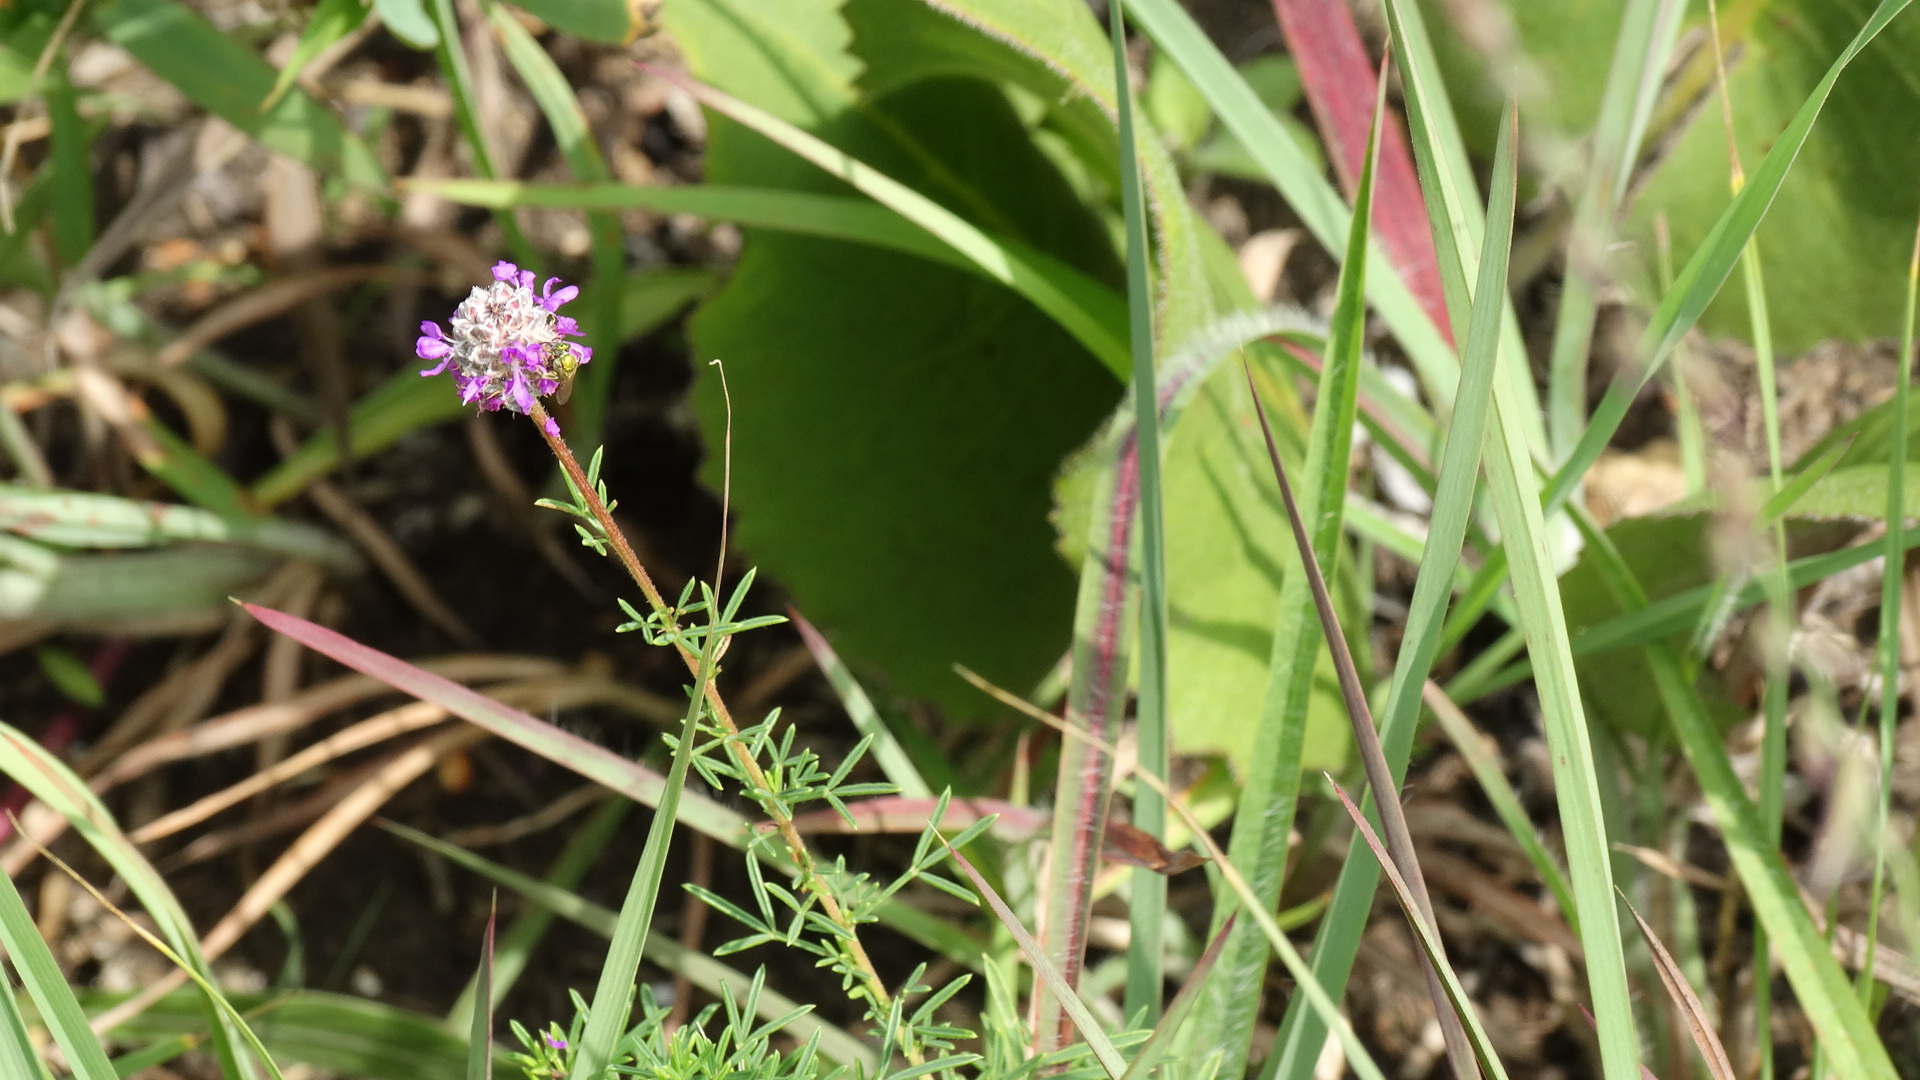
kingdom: Plantae
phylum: Tracheophyta
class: Magnoliopsida
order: Fabales
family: Fabaceae
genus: Dalea
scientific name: Dalea purpurea
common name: Purple prairie-clover
